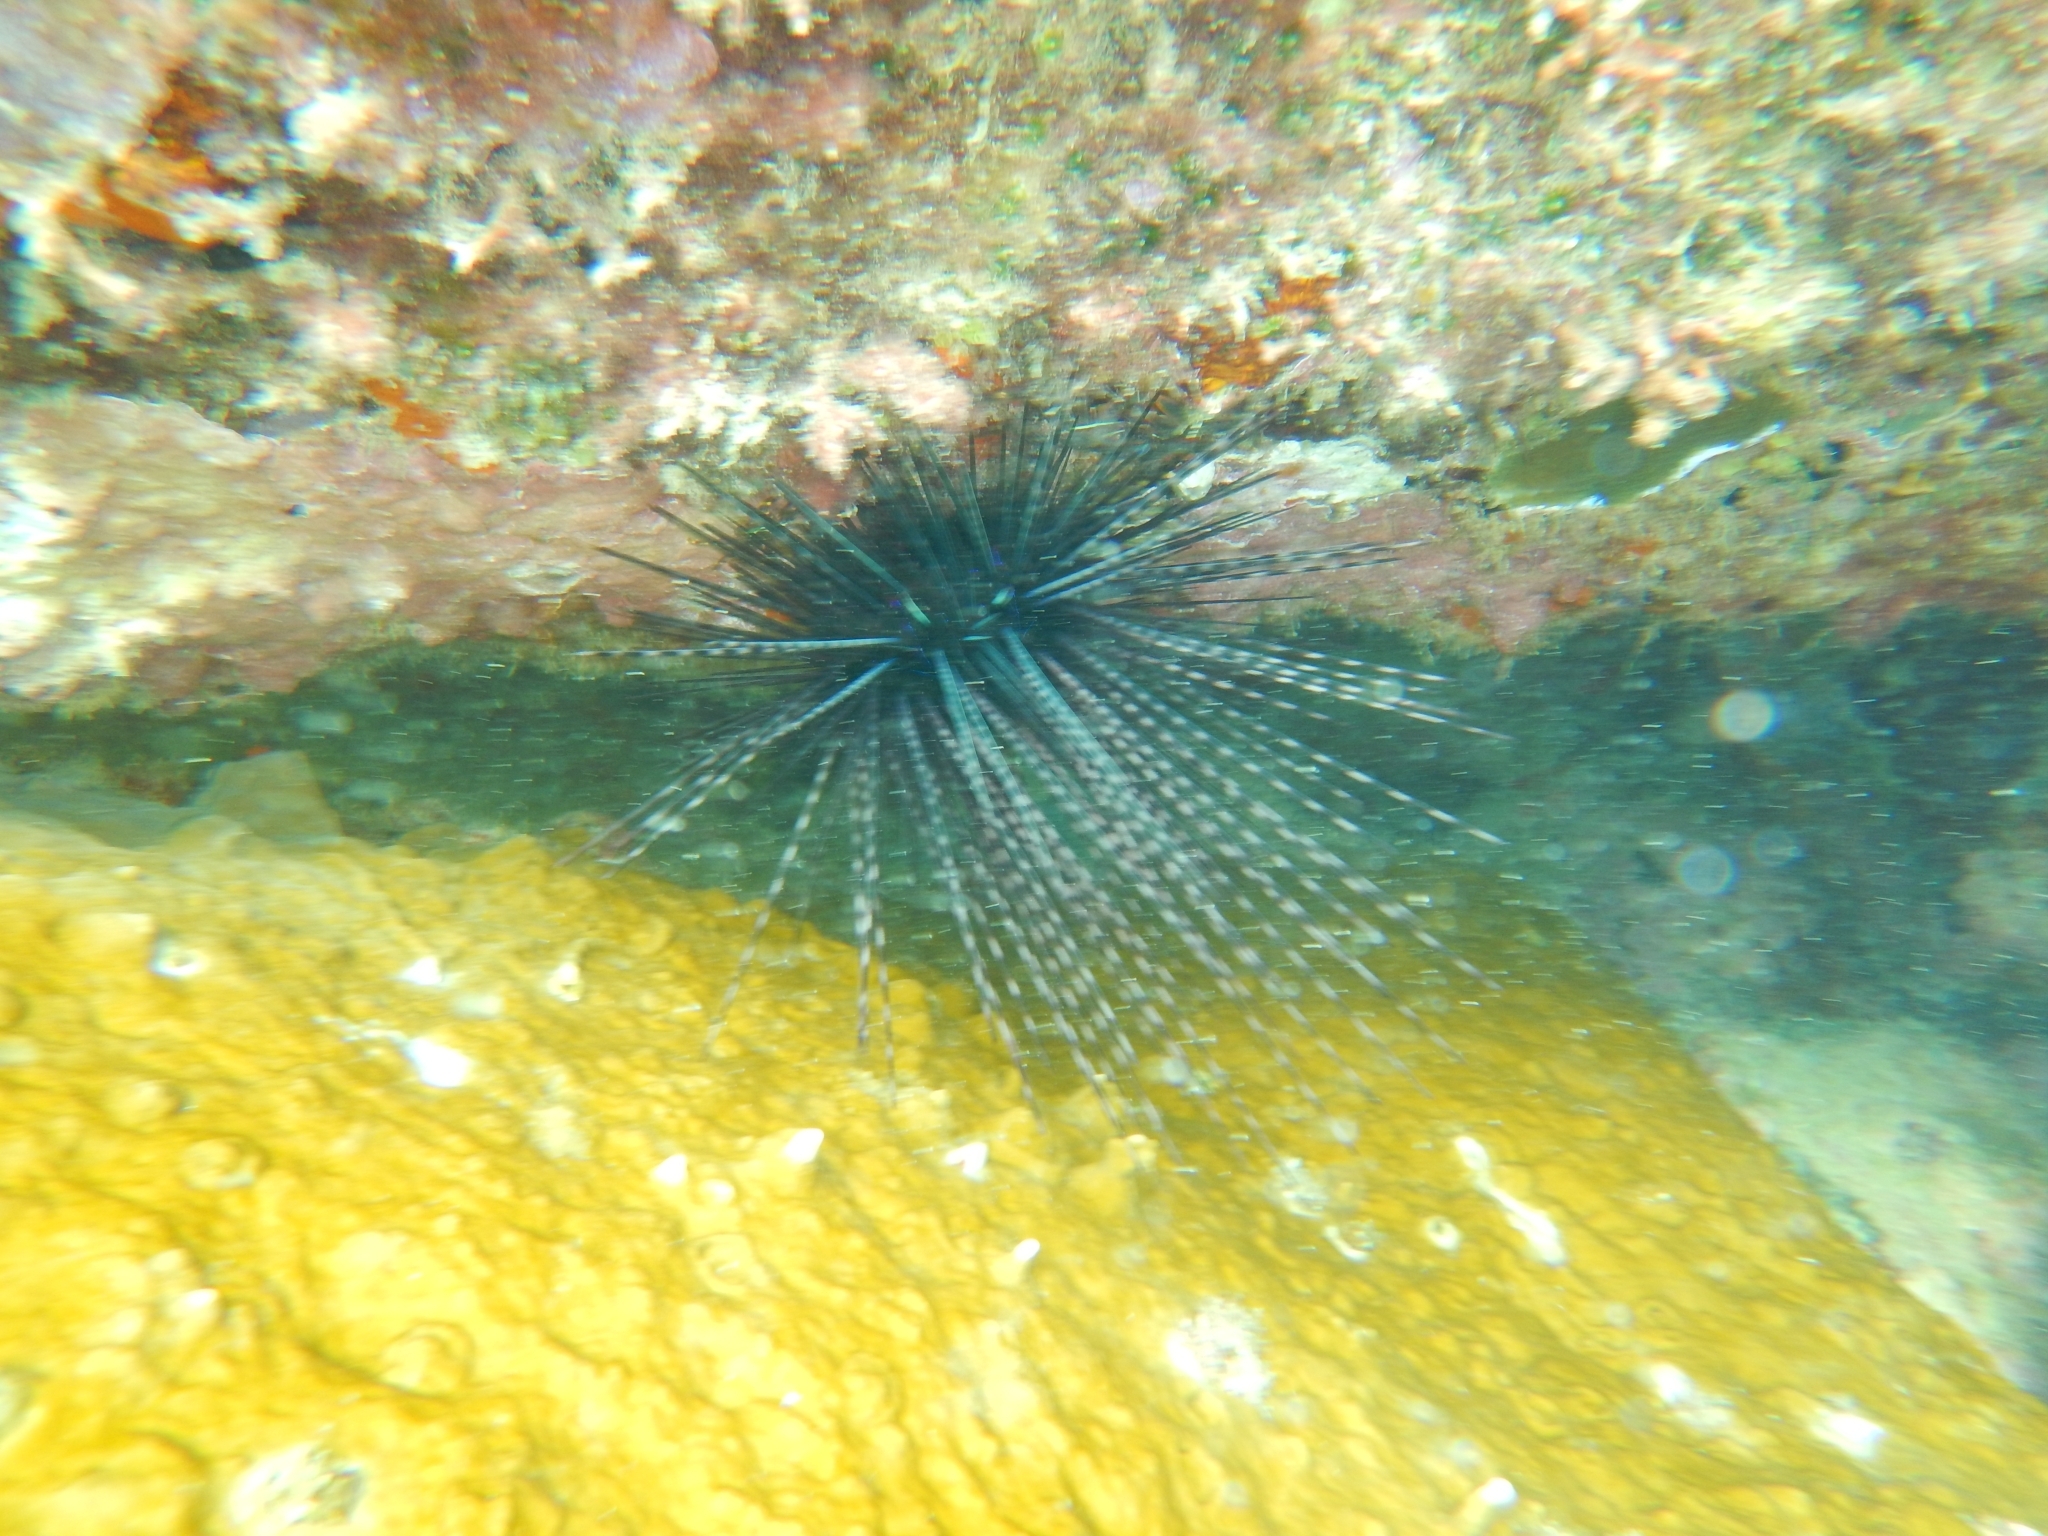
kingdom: Animalia
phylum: Echinodermata
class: Echinoidea
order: Diadematoida
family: Diadematidae
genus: Diadema
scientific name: Diadema antillarum
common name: Spiny urchin
